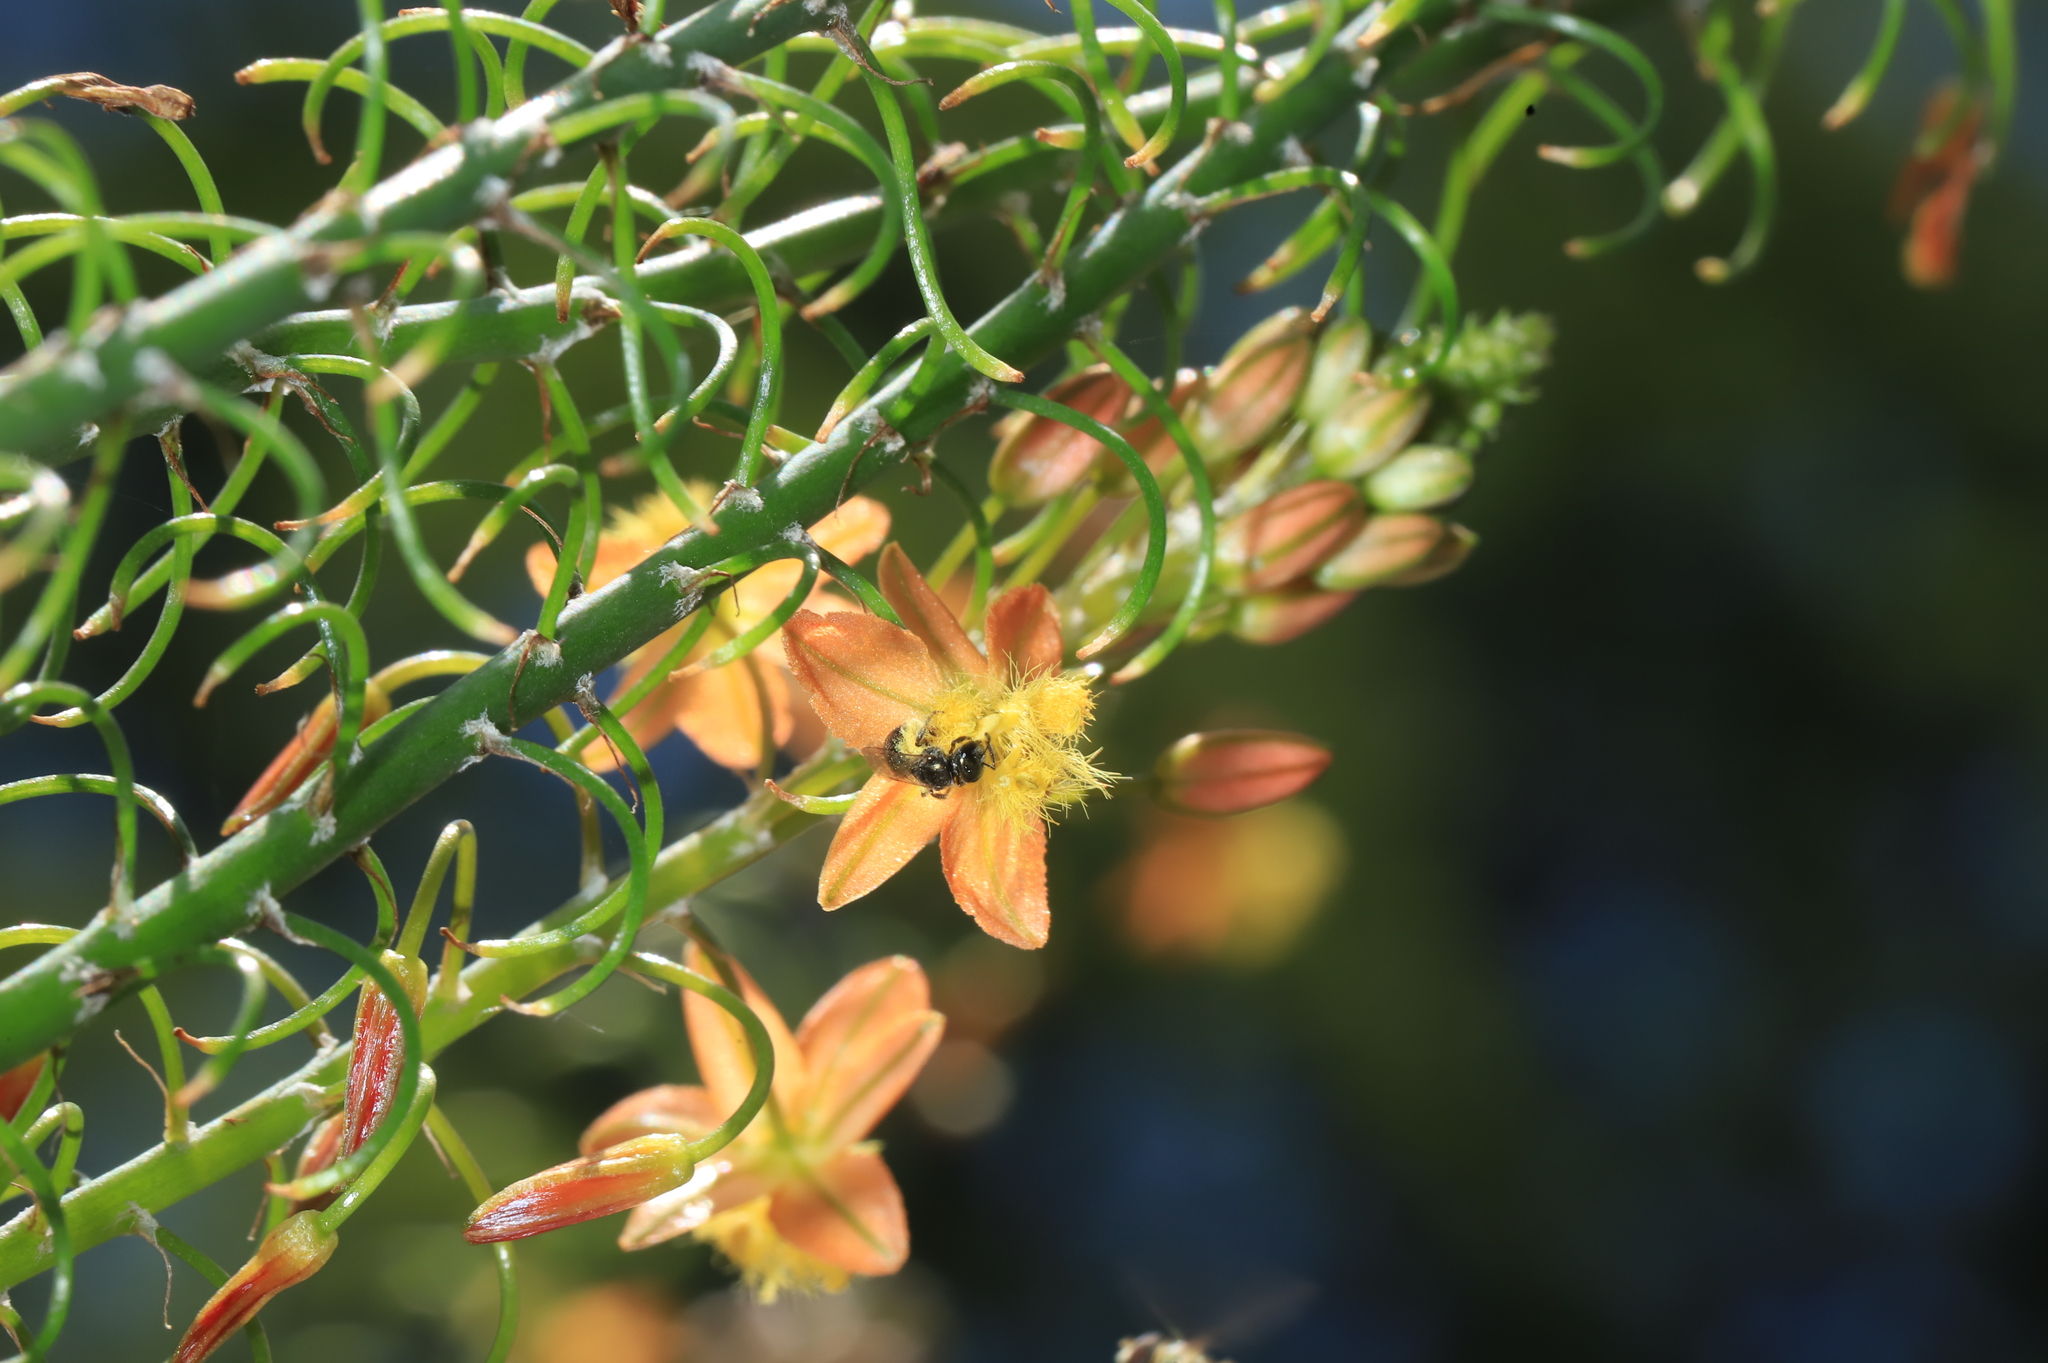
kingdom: Animalia
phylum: Arthropoda
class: Insecta
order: Hymenoptera
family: Halictidae
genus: Dialictus
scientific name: Dialictus
